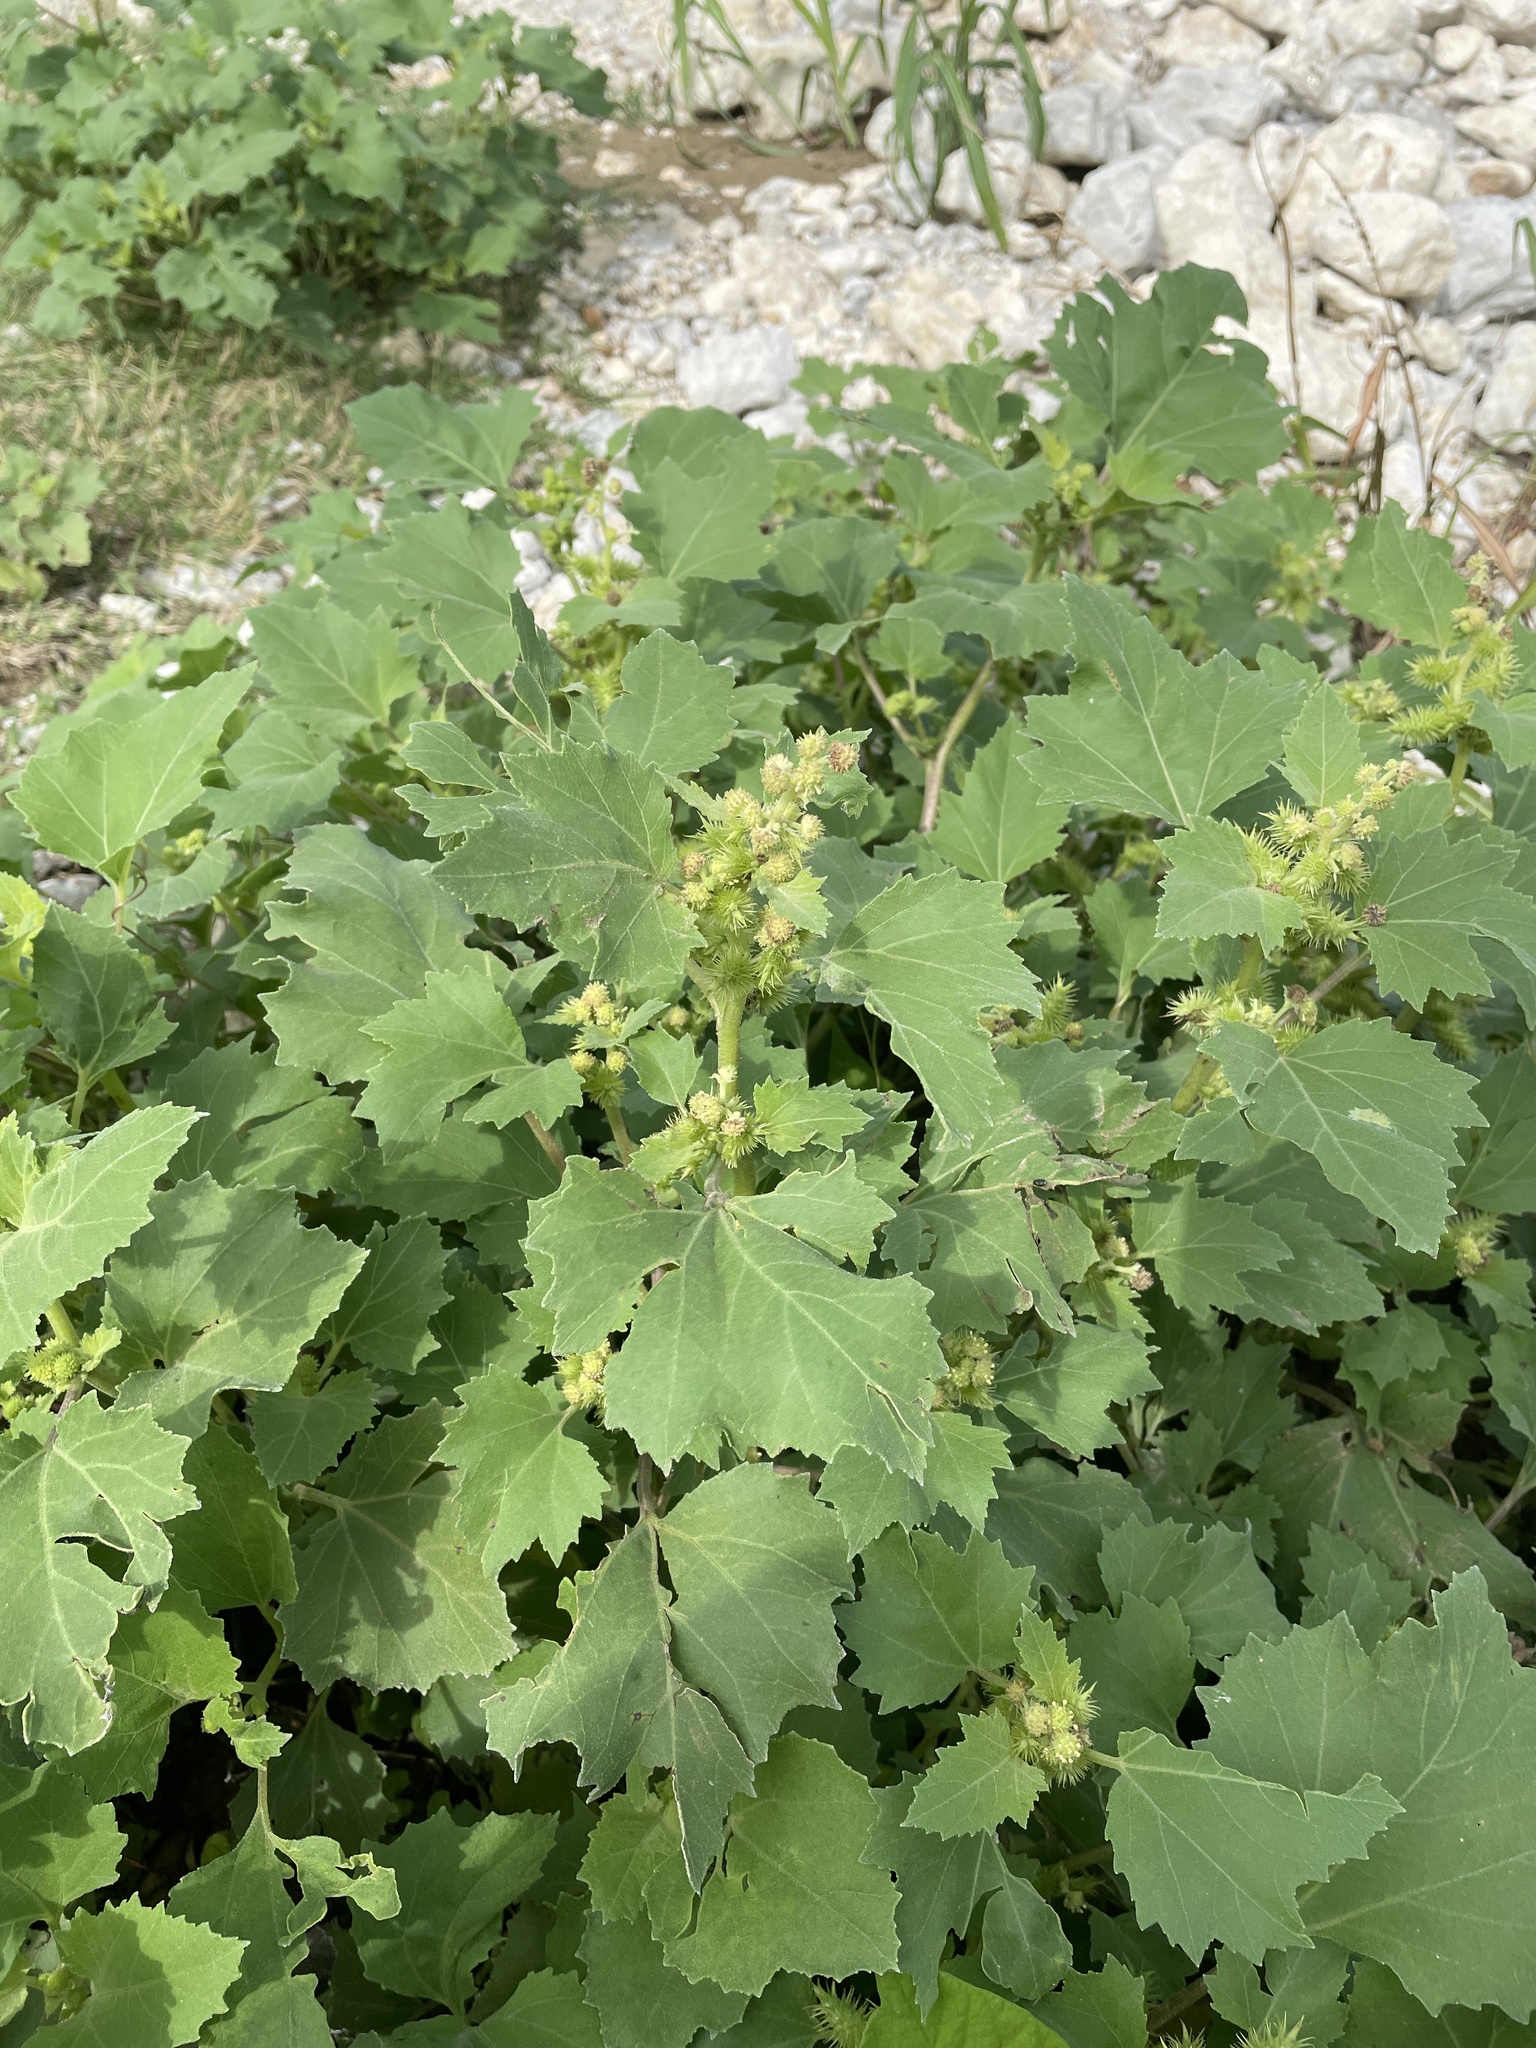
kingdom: Plantae
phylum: Tracheophyta
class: Magnoliopsida
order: Asterales
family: Asteraceae
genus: Xanthium
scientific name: Xanthium strumarium
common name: Rough cocklebur
